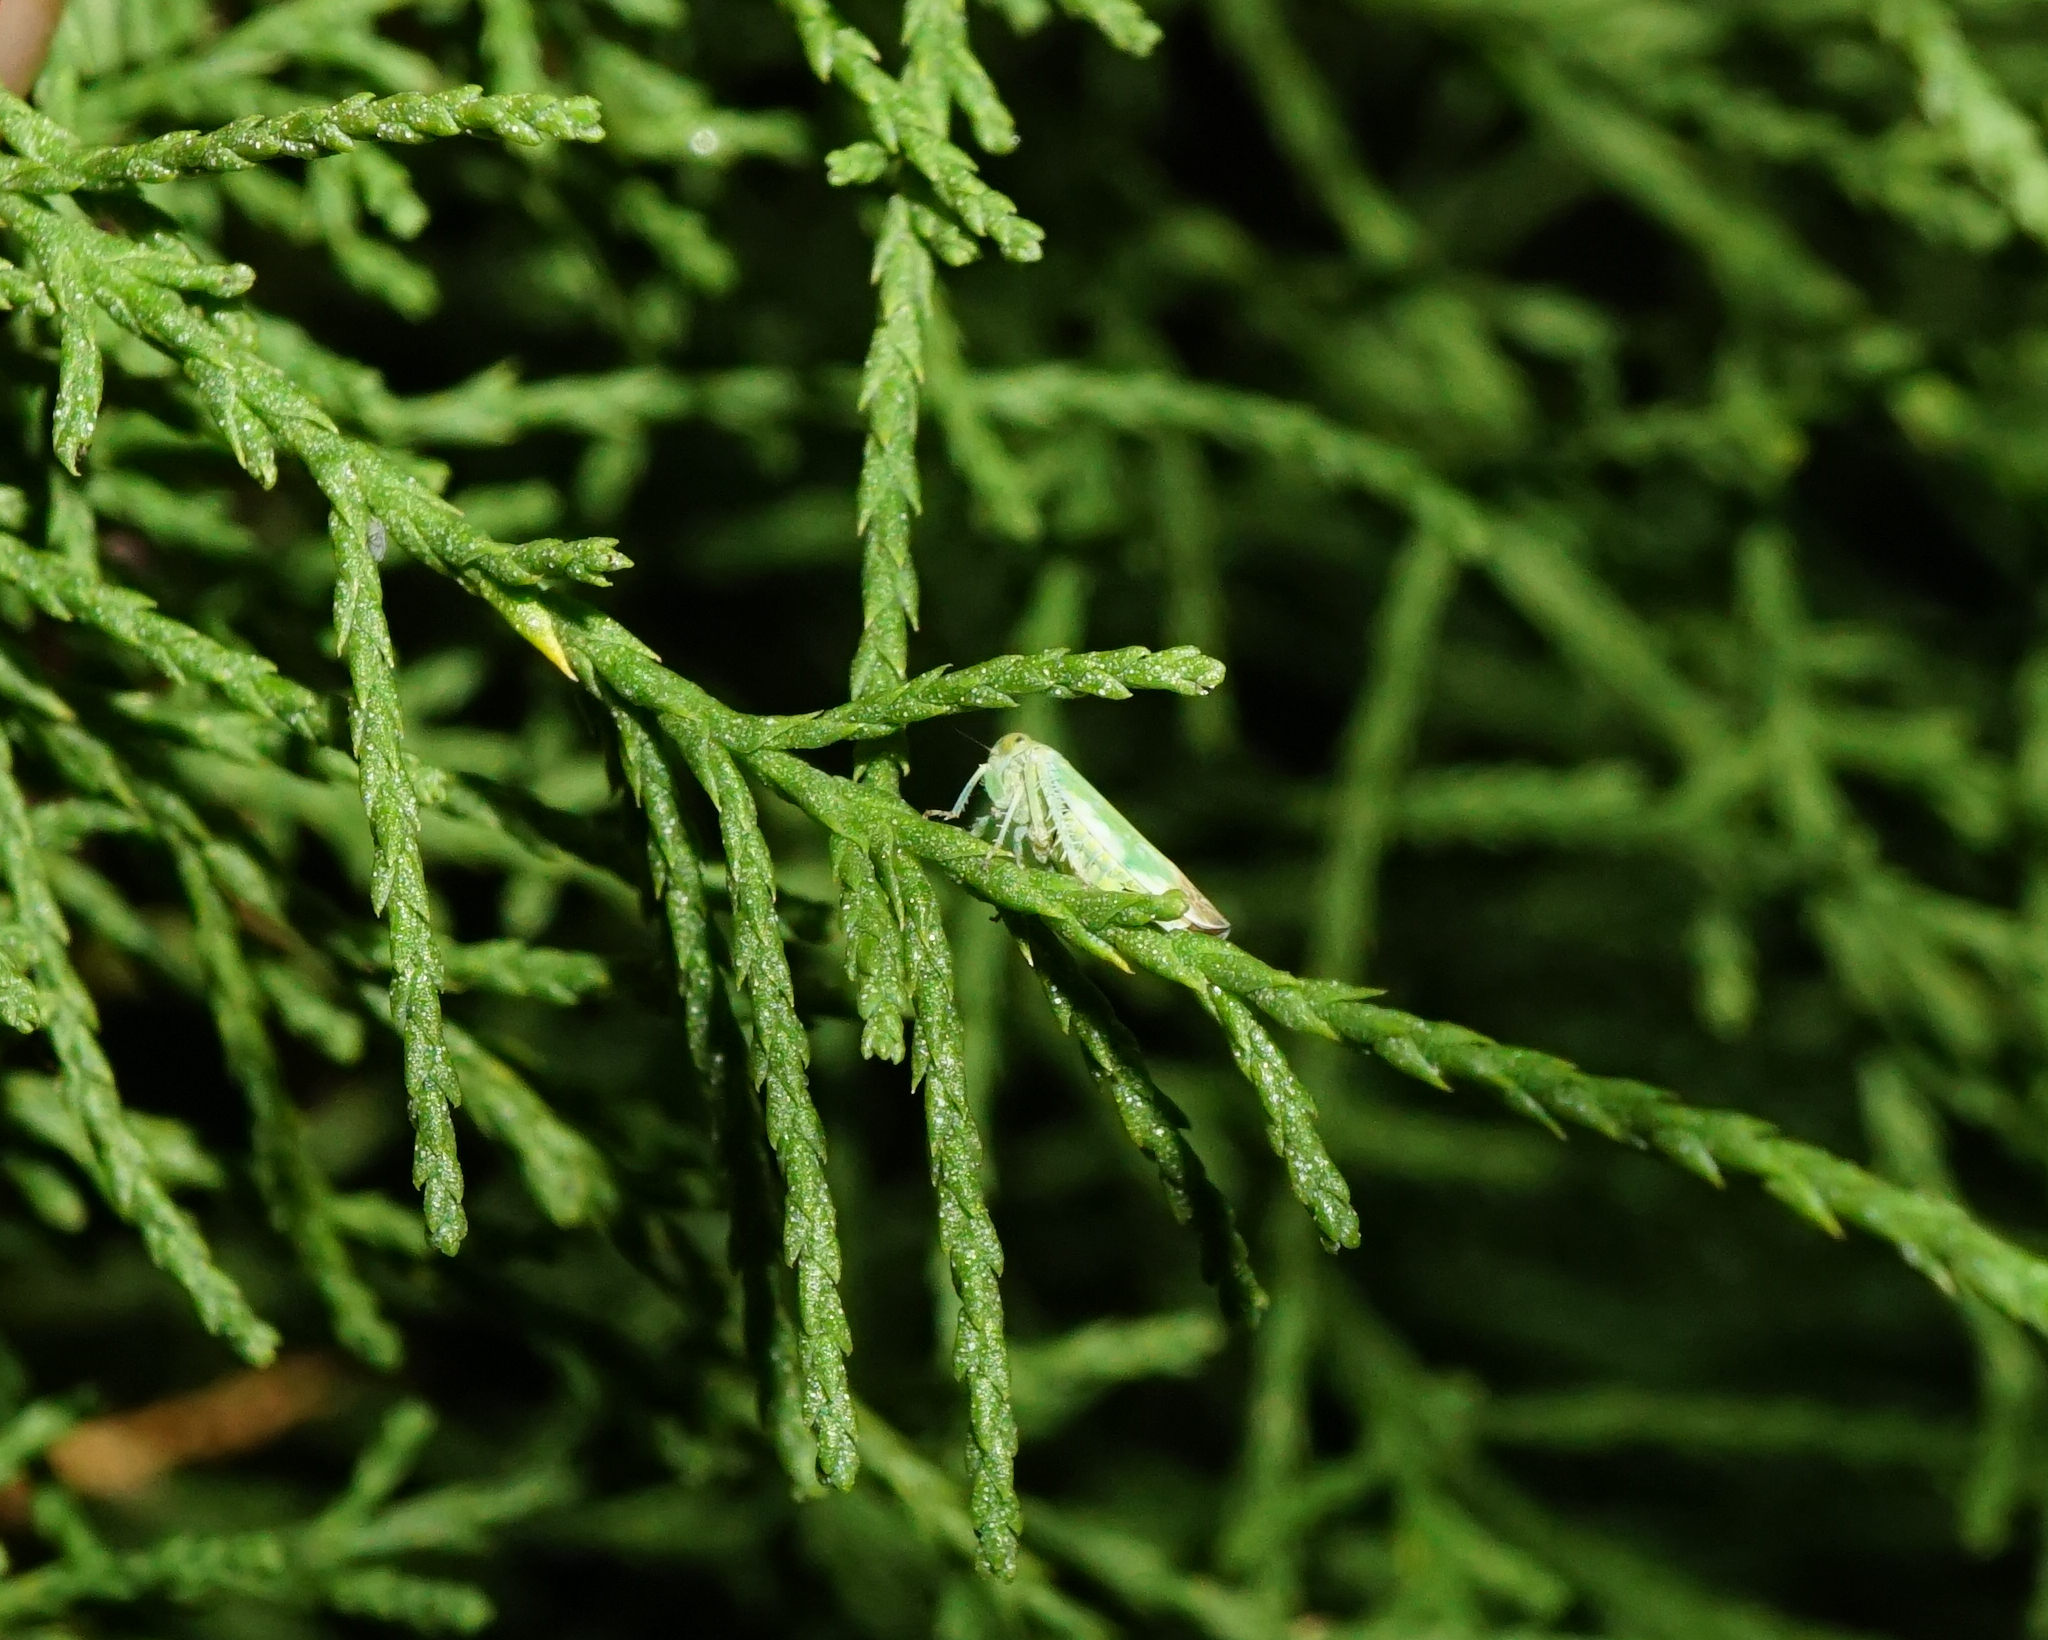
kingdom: Plantae
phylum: Tracheophyta
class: Magnoliopsida
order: Caryophyllales
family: Tamaricaceae
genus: Tamarix
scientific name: Tamarix gallica
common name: Tamarisk
